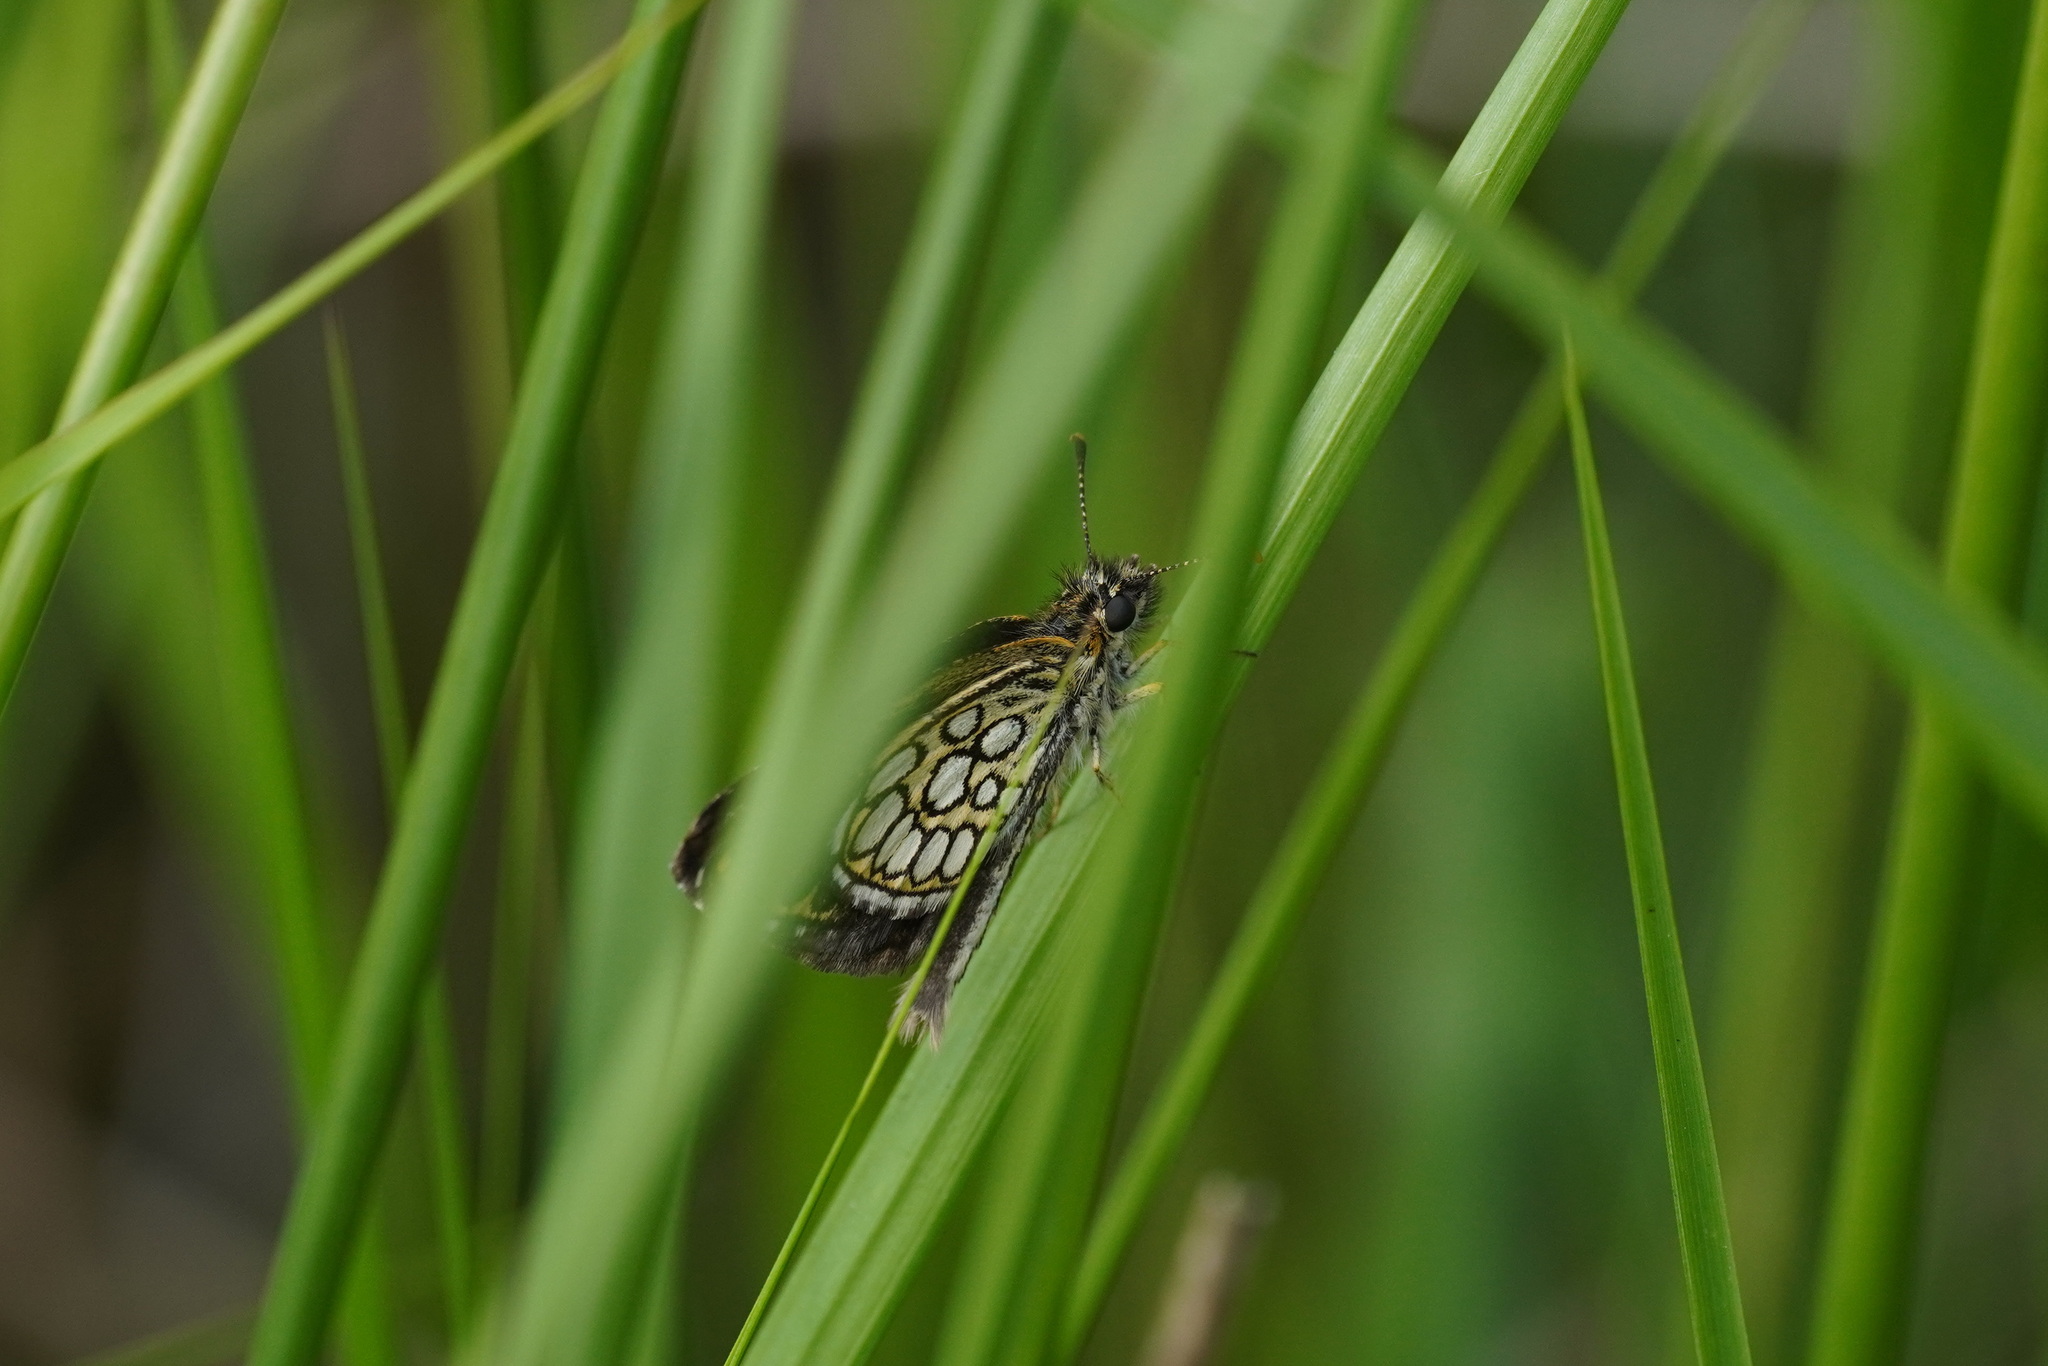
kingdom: Animalia
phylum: Arthropoda
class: Insecta
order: Lepidoptera
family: Hesperiidae
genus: Heteropterus
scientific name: Heteropterus morpheus
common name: Large chequered skipper
